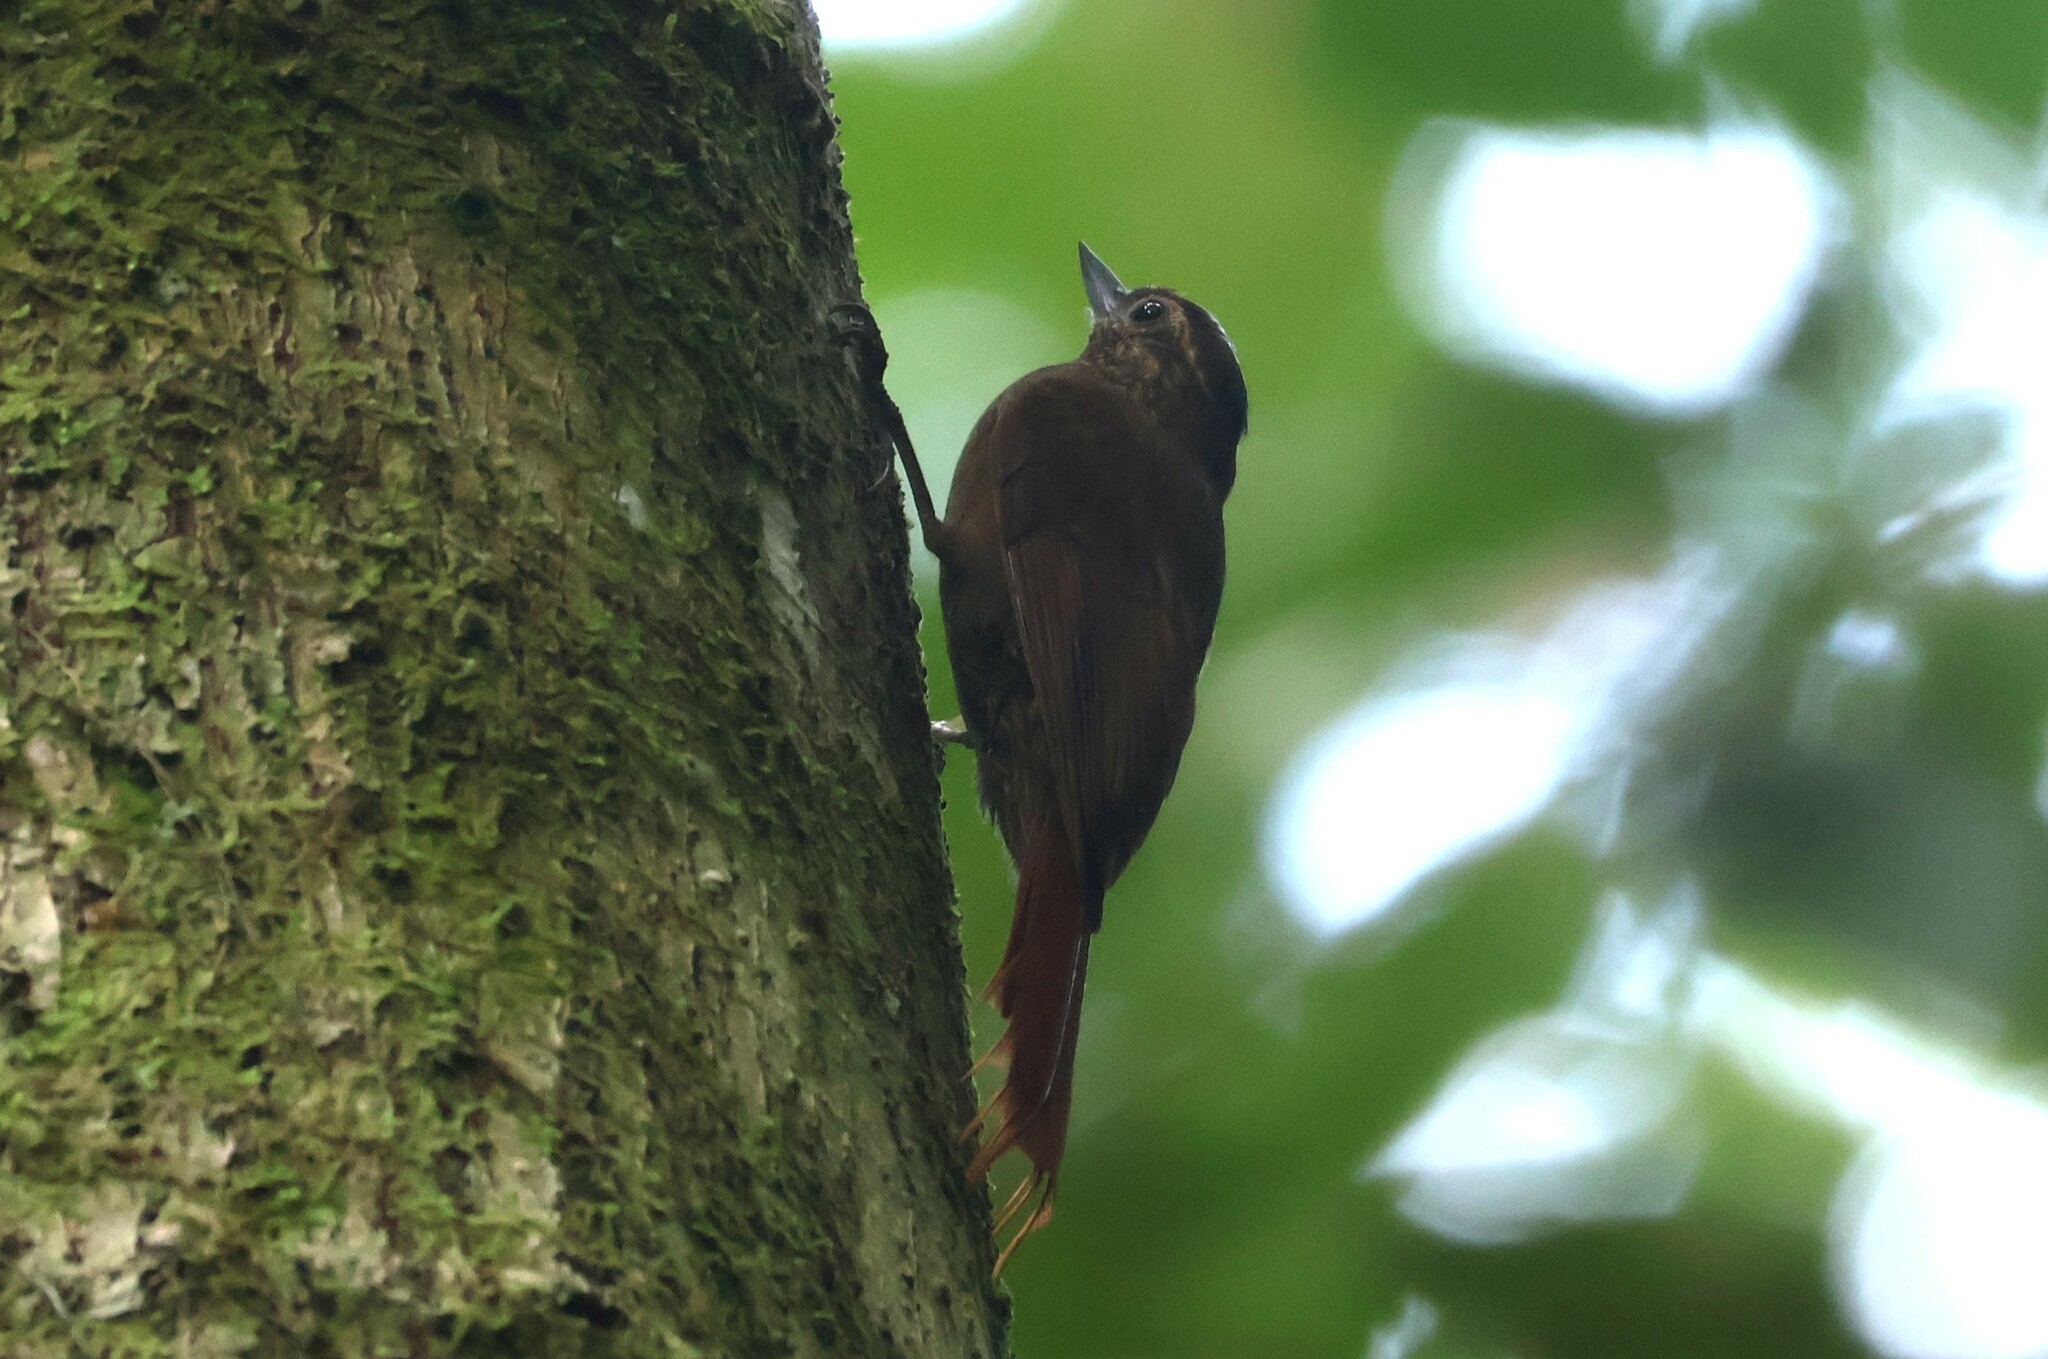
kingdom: Animalia
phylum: Chordata
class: Aves
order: Passeriformes
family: Furnariidae
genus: Glyphorynchus
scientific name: Glyphorynchus spirurus
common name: Wedge-billed woodcreeper
